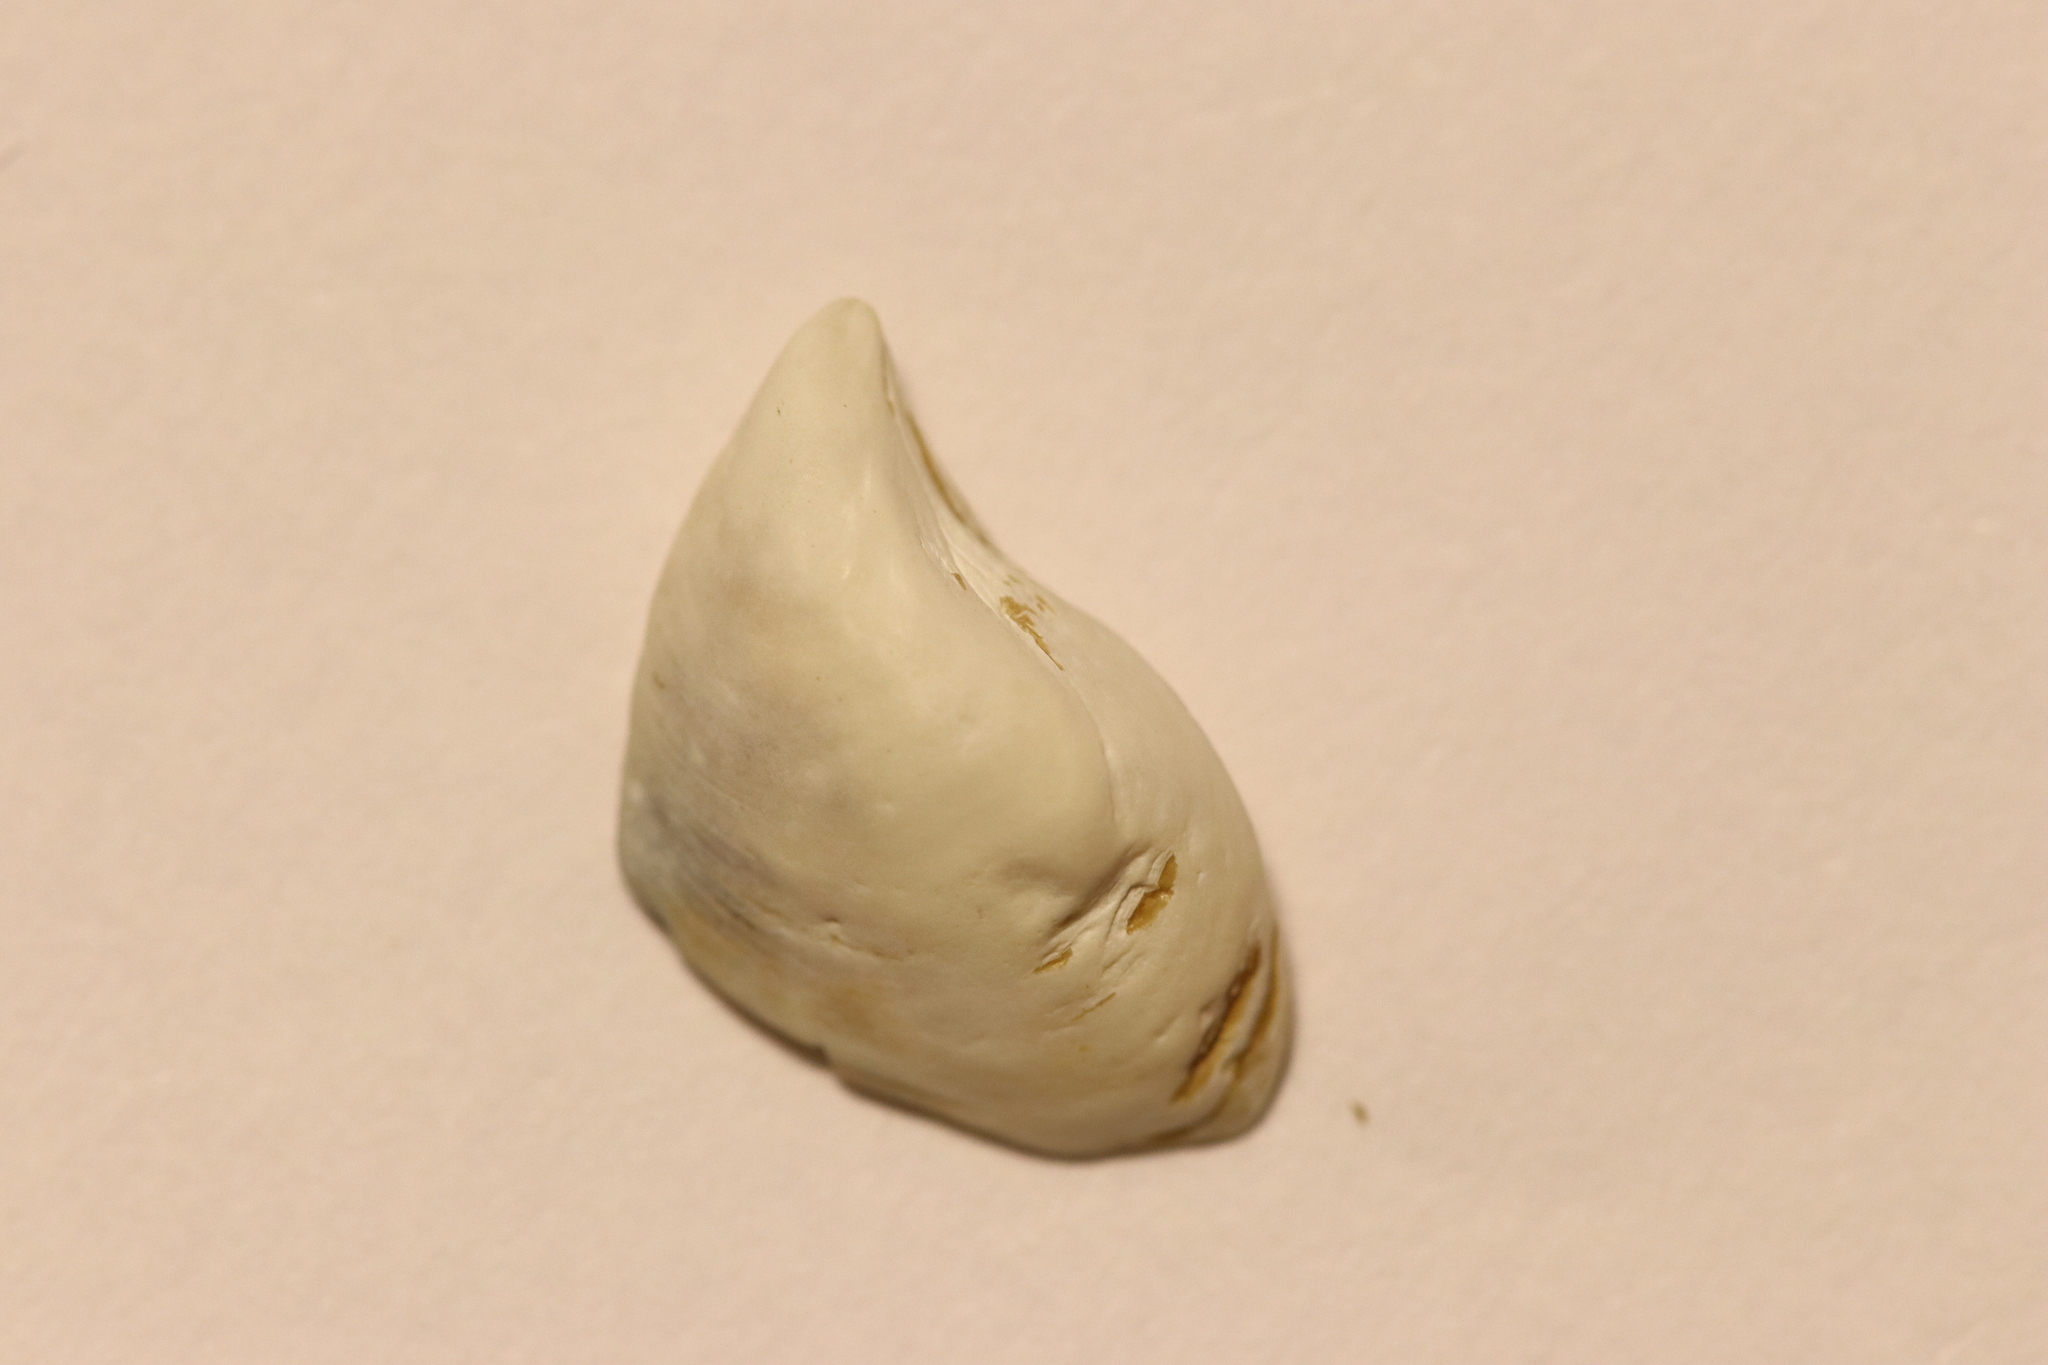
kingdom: Animalia
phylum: Mollusca
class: Bivalvia
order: Myida
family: Dreissenidae
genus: Dreissena
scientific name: Dreissena bugensis
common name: Quagga mussel
